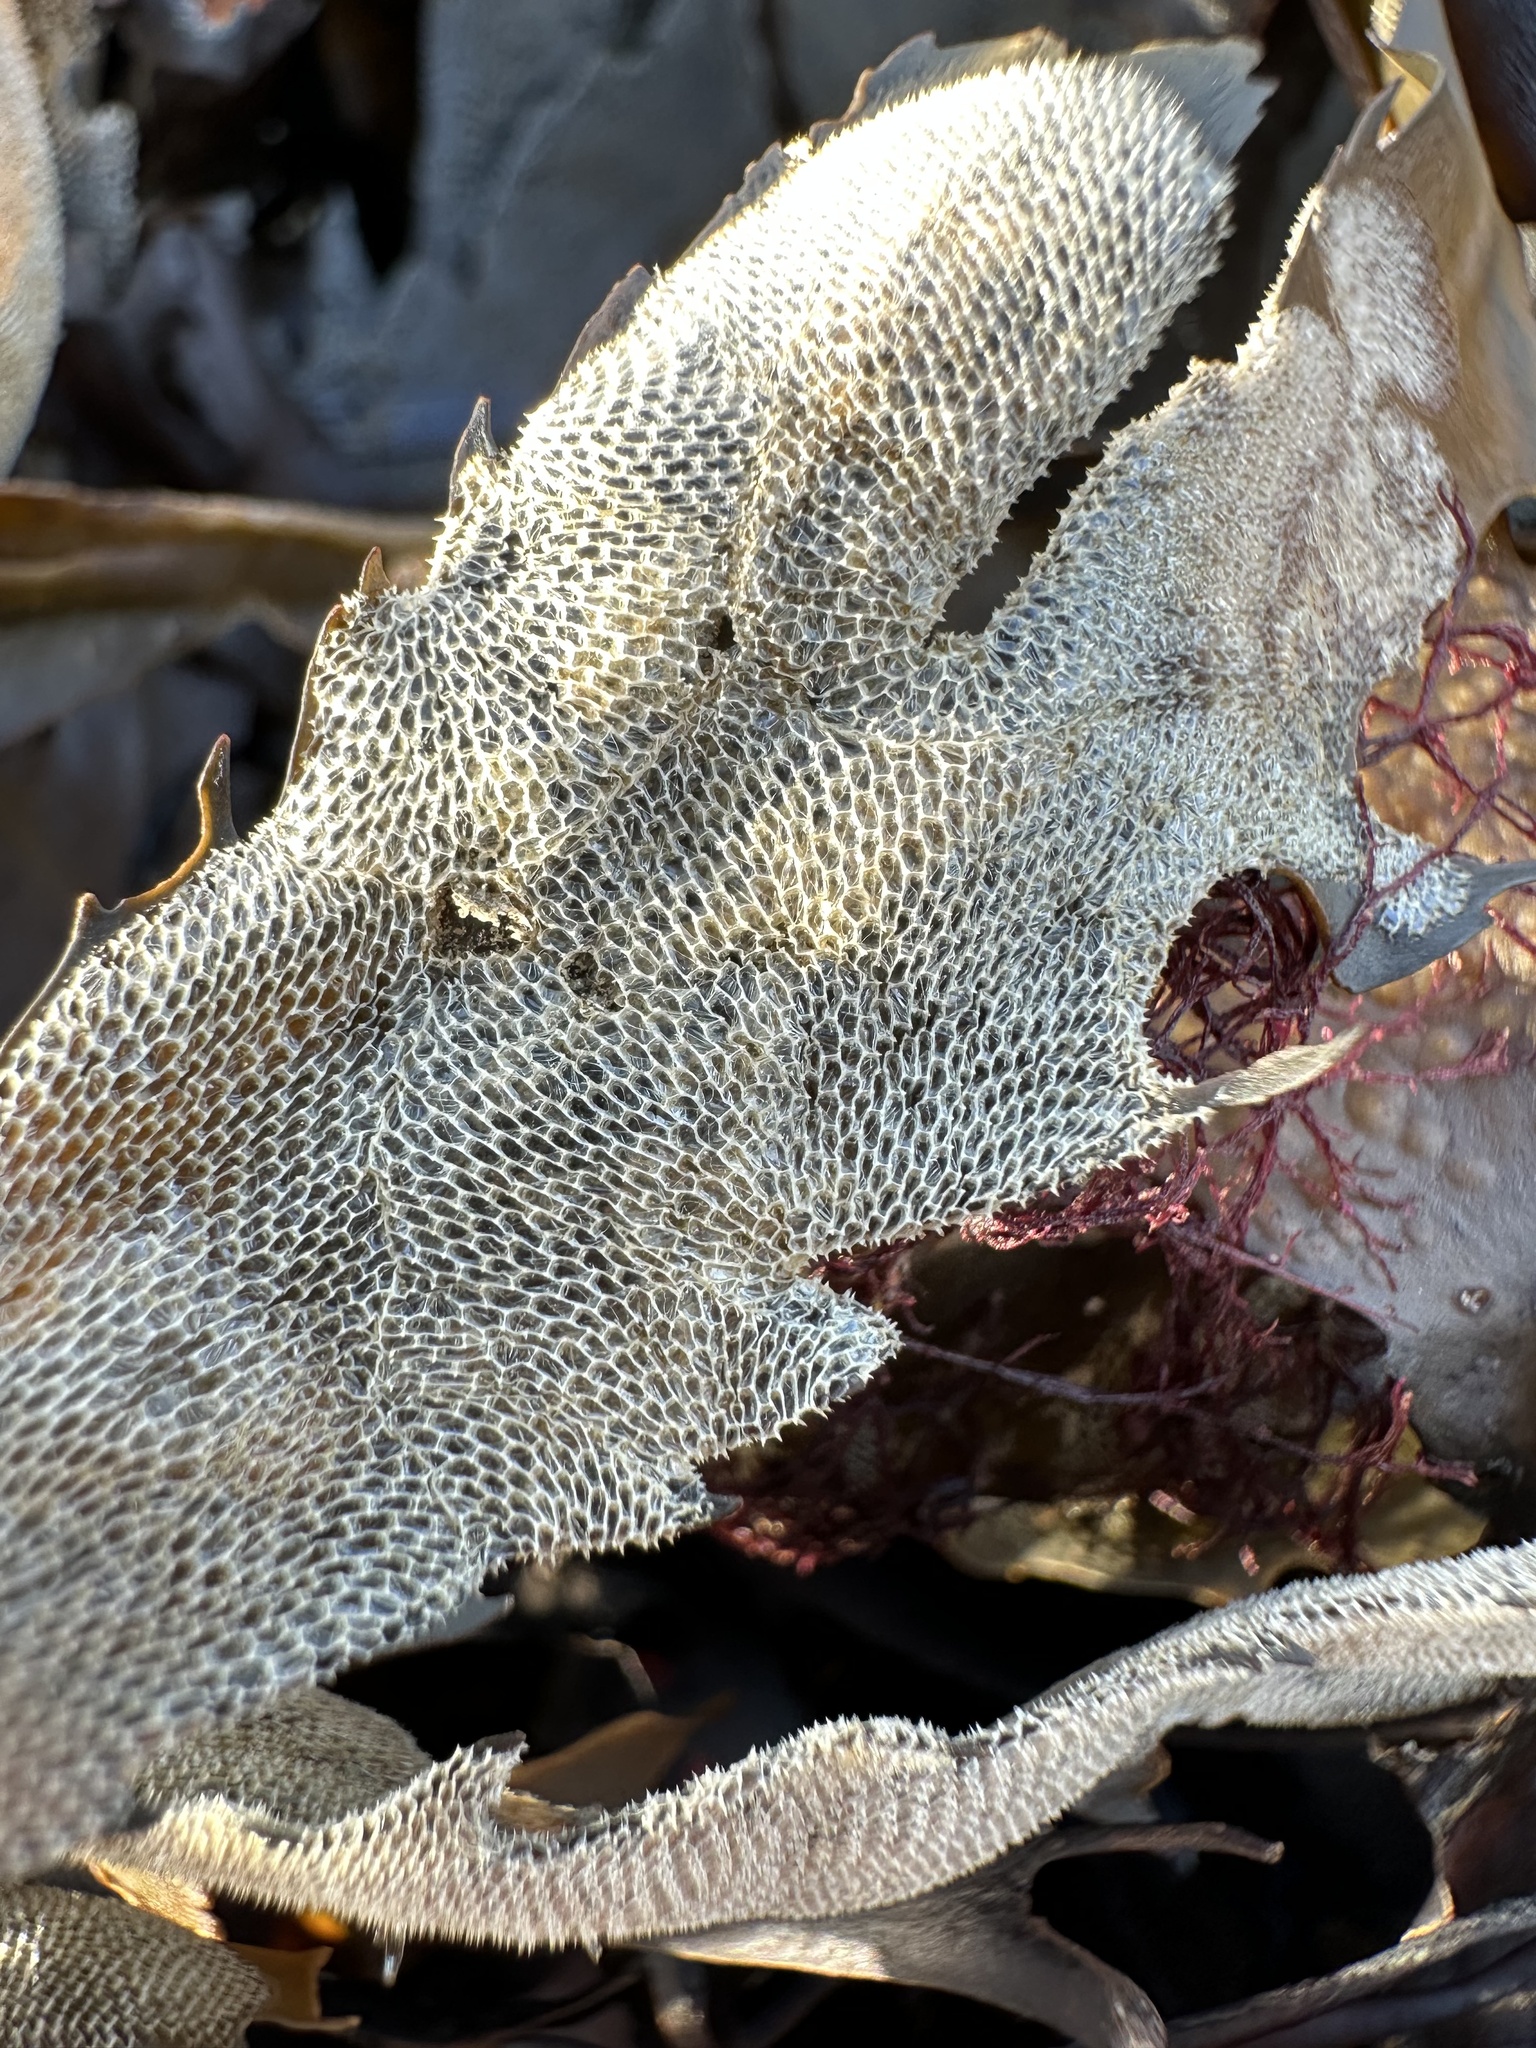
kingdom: Animalia
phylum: Bryozoa
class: Gymnolaemata
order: Cheilostomatida
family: Membraniporidae
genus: Membranipora
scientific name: Membranipora membranacea
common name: Sea mat
